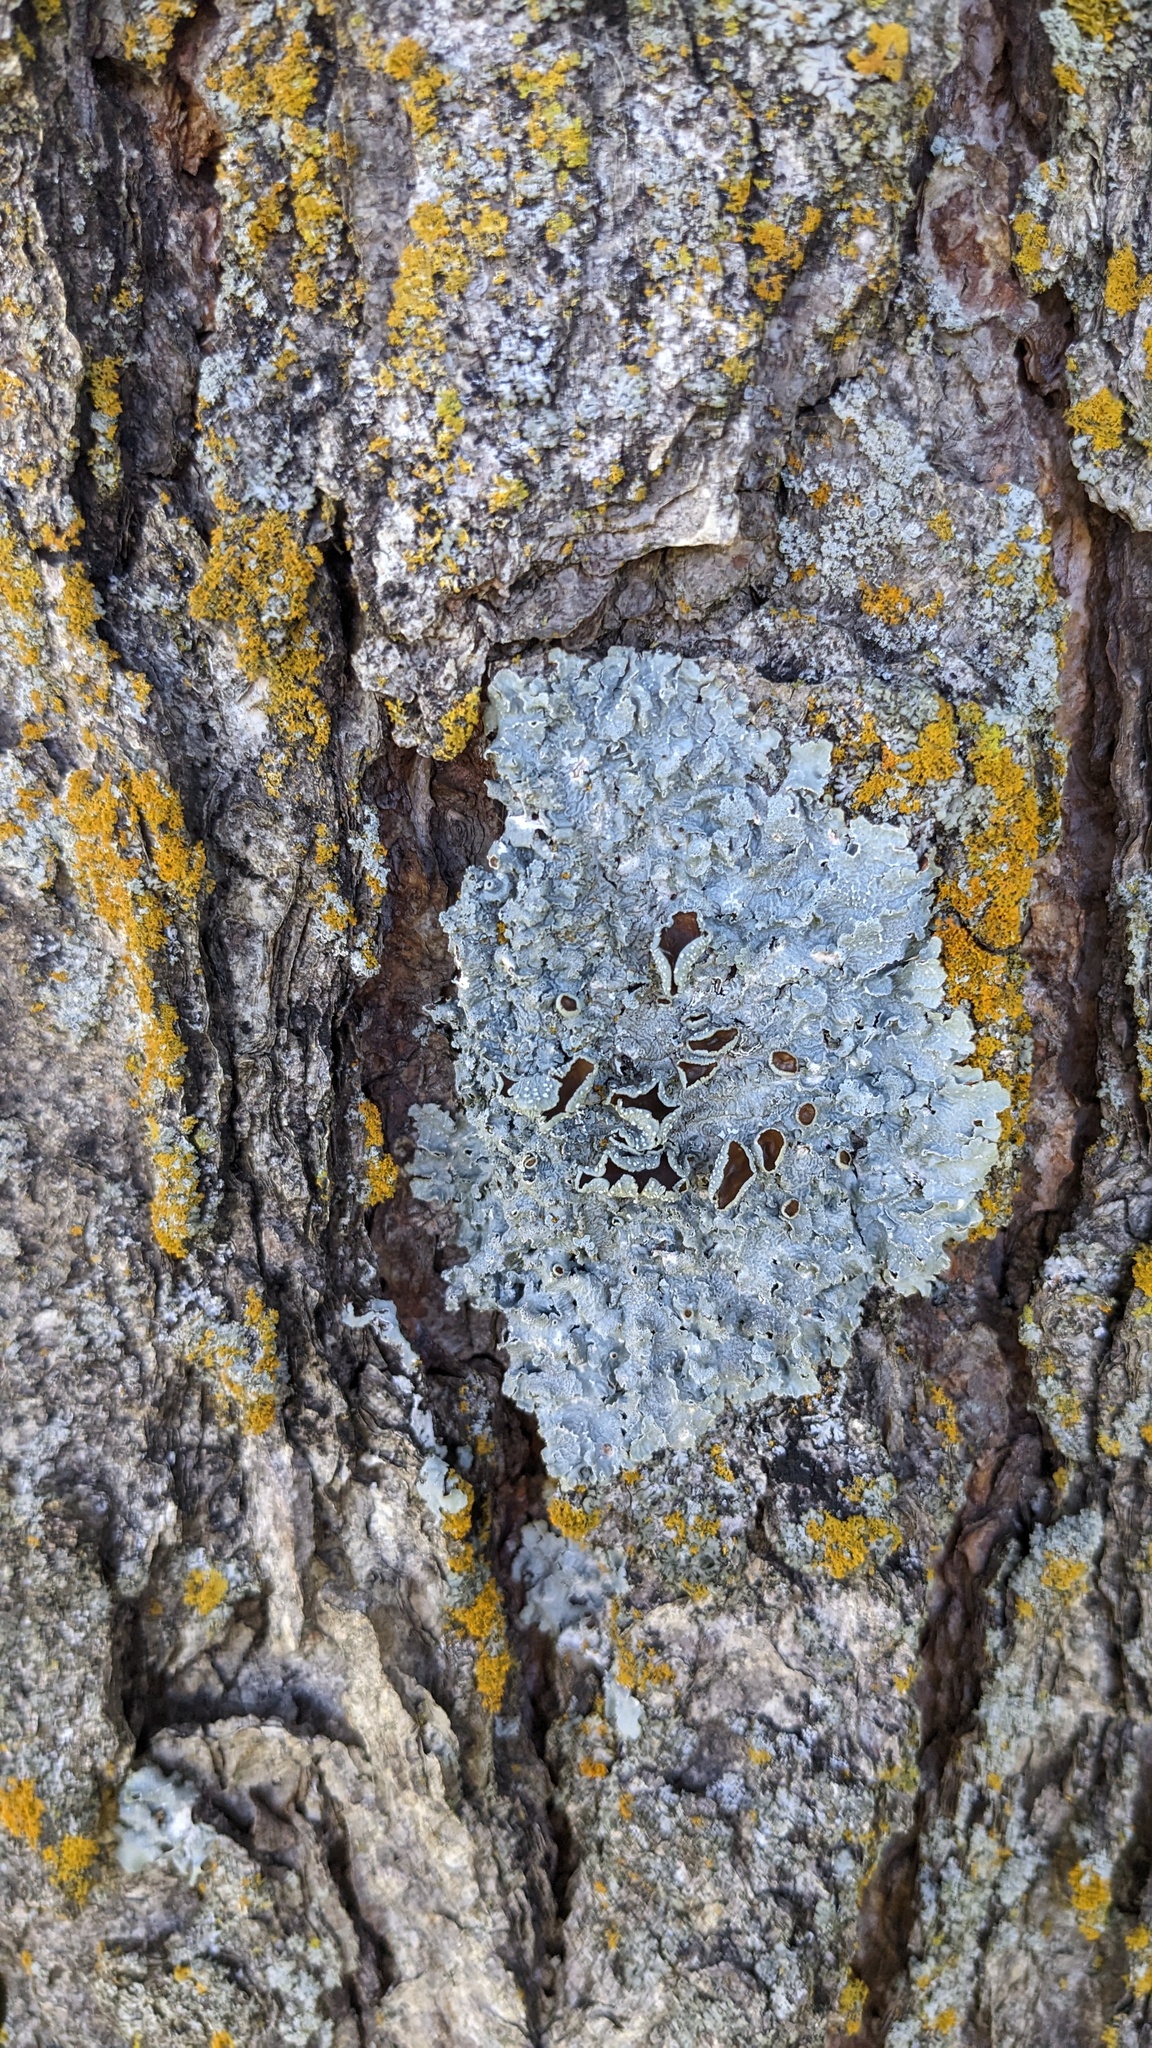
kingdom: Fungi
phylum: Ascomycota
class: Lecanoromycetes
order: Lecanorales
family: Parmeliaceae
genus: Punctelia
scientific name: Punctelia bolliana
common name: Eastern speckled shield lichen
